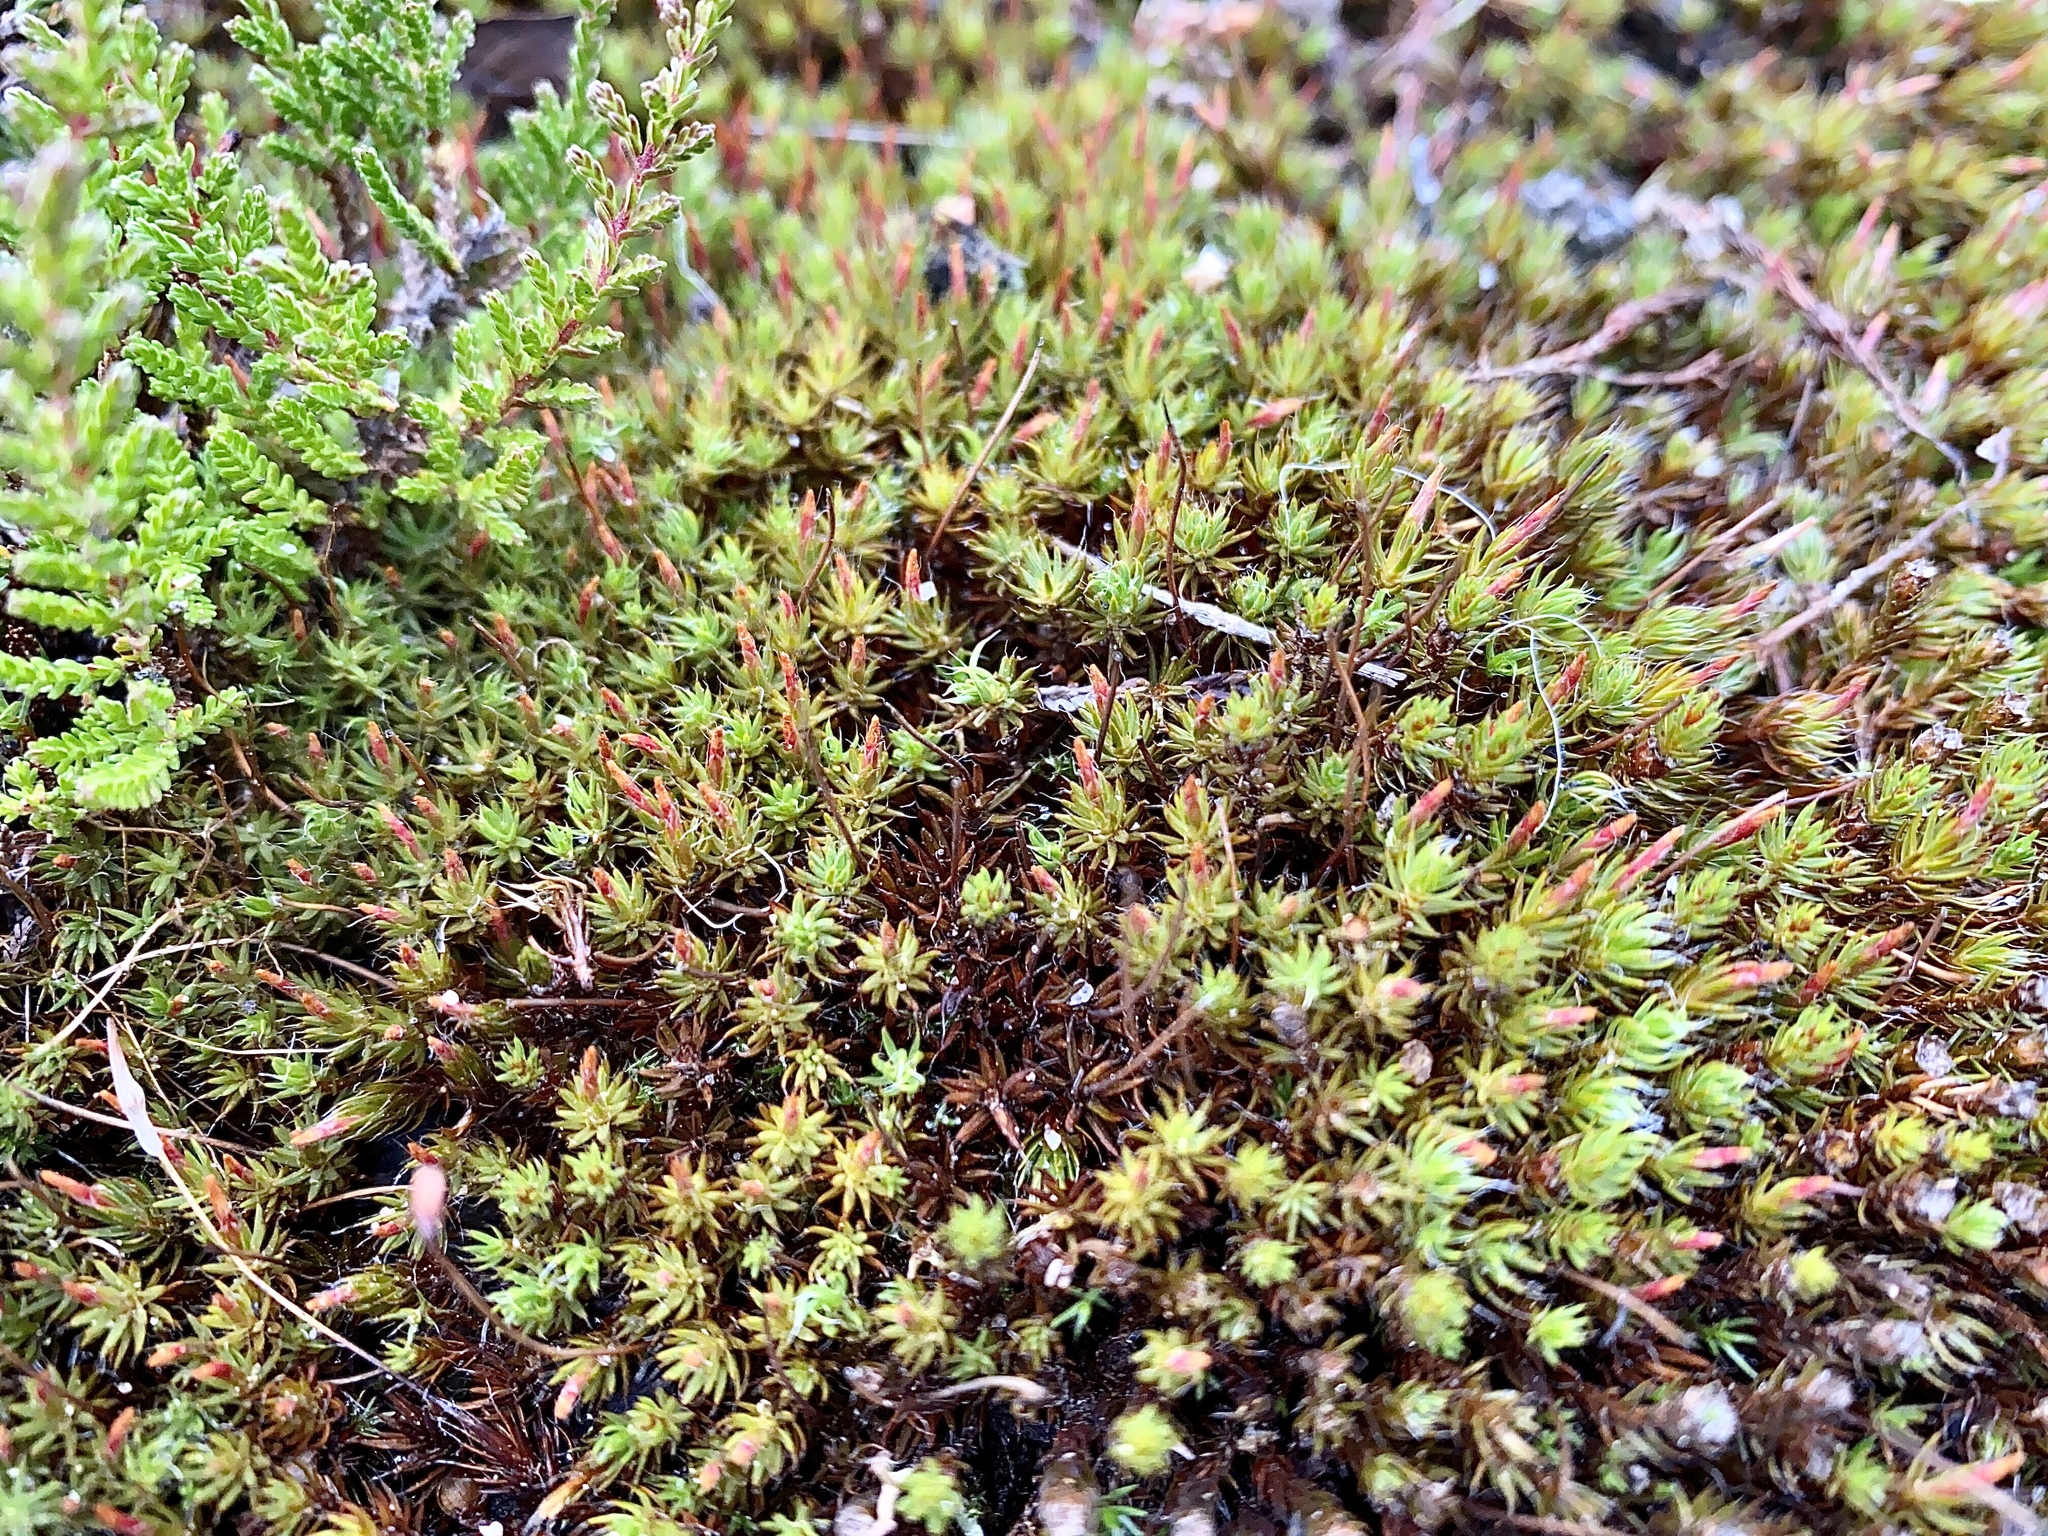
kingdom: Plantae
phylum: Bryophyta
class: Polytrichopsida
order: Polytrichales
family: Polytrichaceae
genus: Polytrichum
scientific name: Polytrichum piliferum
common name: Bristly haircap
